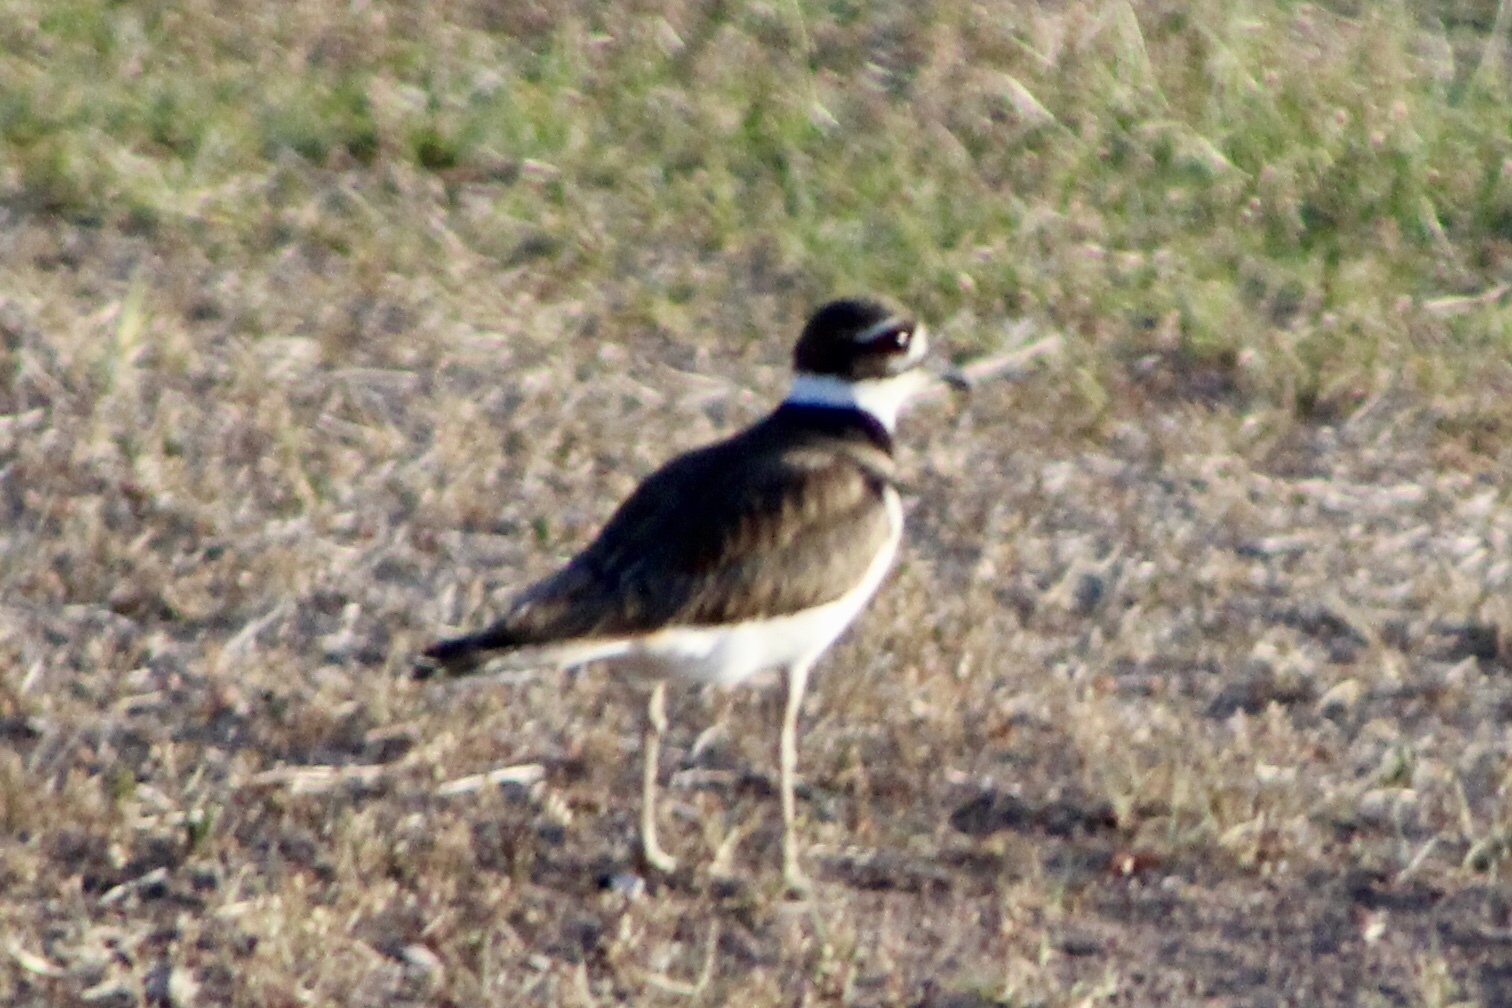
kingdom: Animalia
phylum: Chordata
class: Aves
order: Charadriiformes
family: Charadriidae
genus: Charadrius
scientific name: Charadrius vociferus
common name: Killdeer
